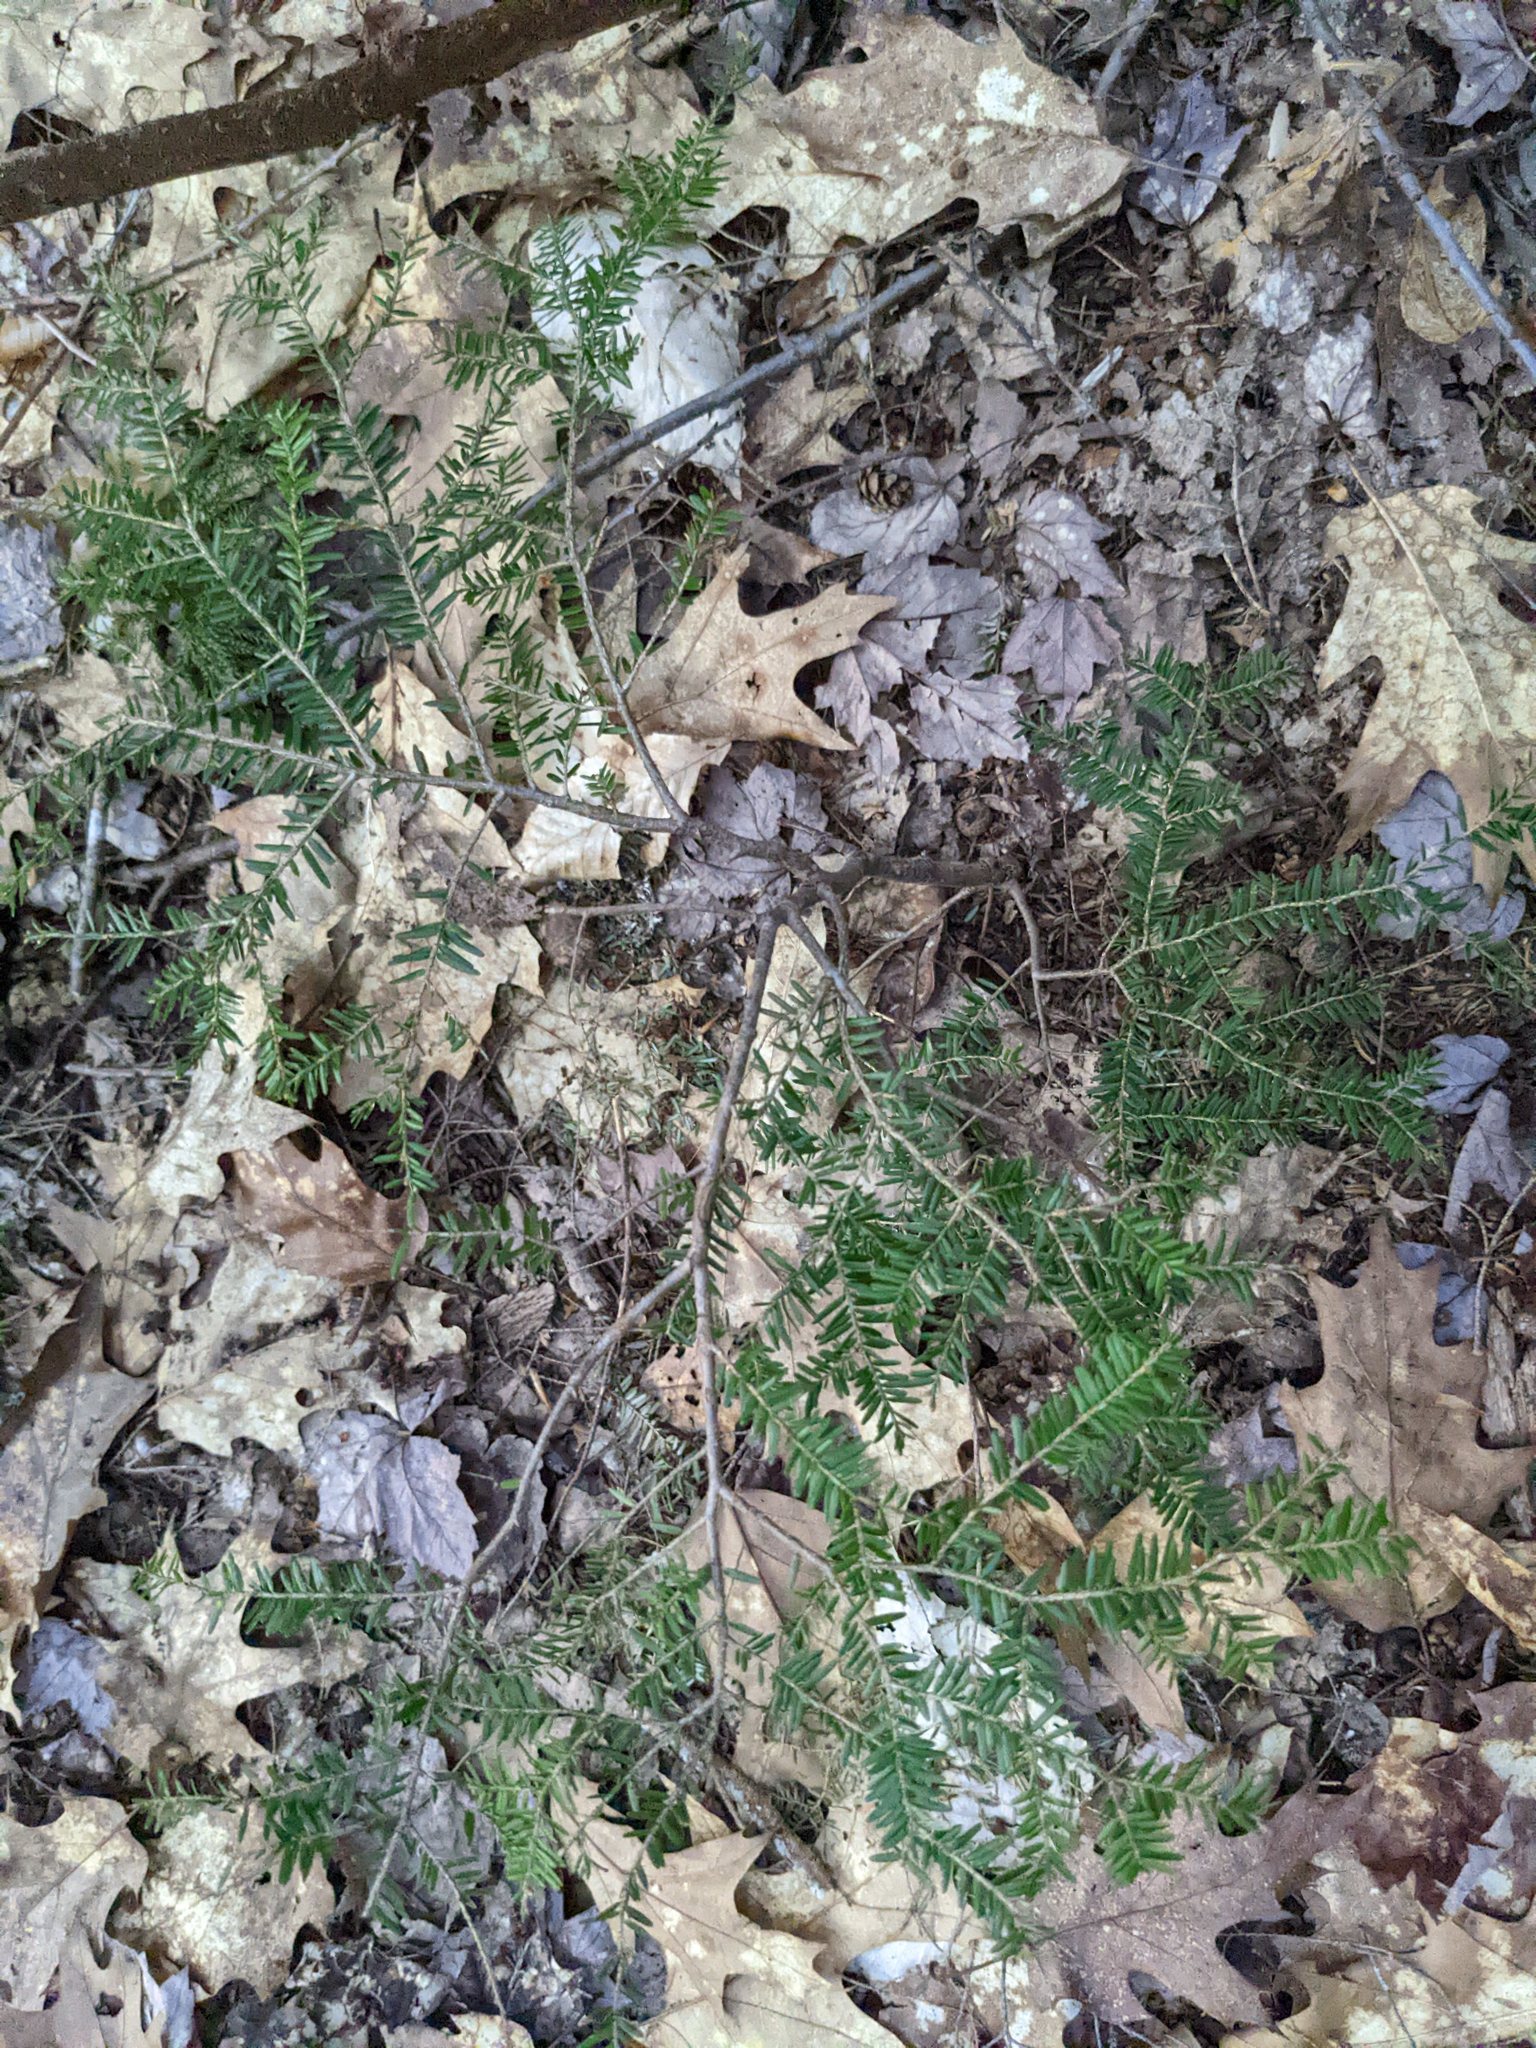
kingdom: Plantae
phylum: Tracheophyta
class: Pinopsida
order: Pinales
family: Pinaceae
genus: Tsuga
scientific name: Tsuga canadensis
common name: Eastern hemlock
